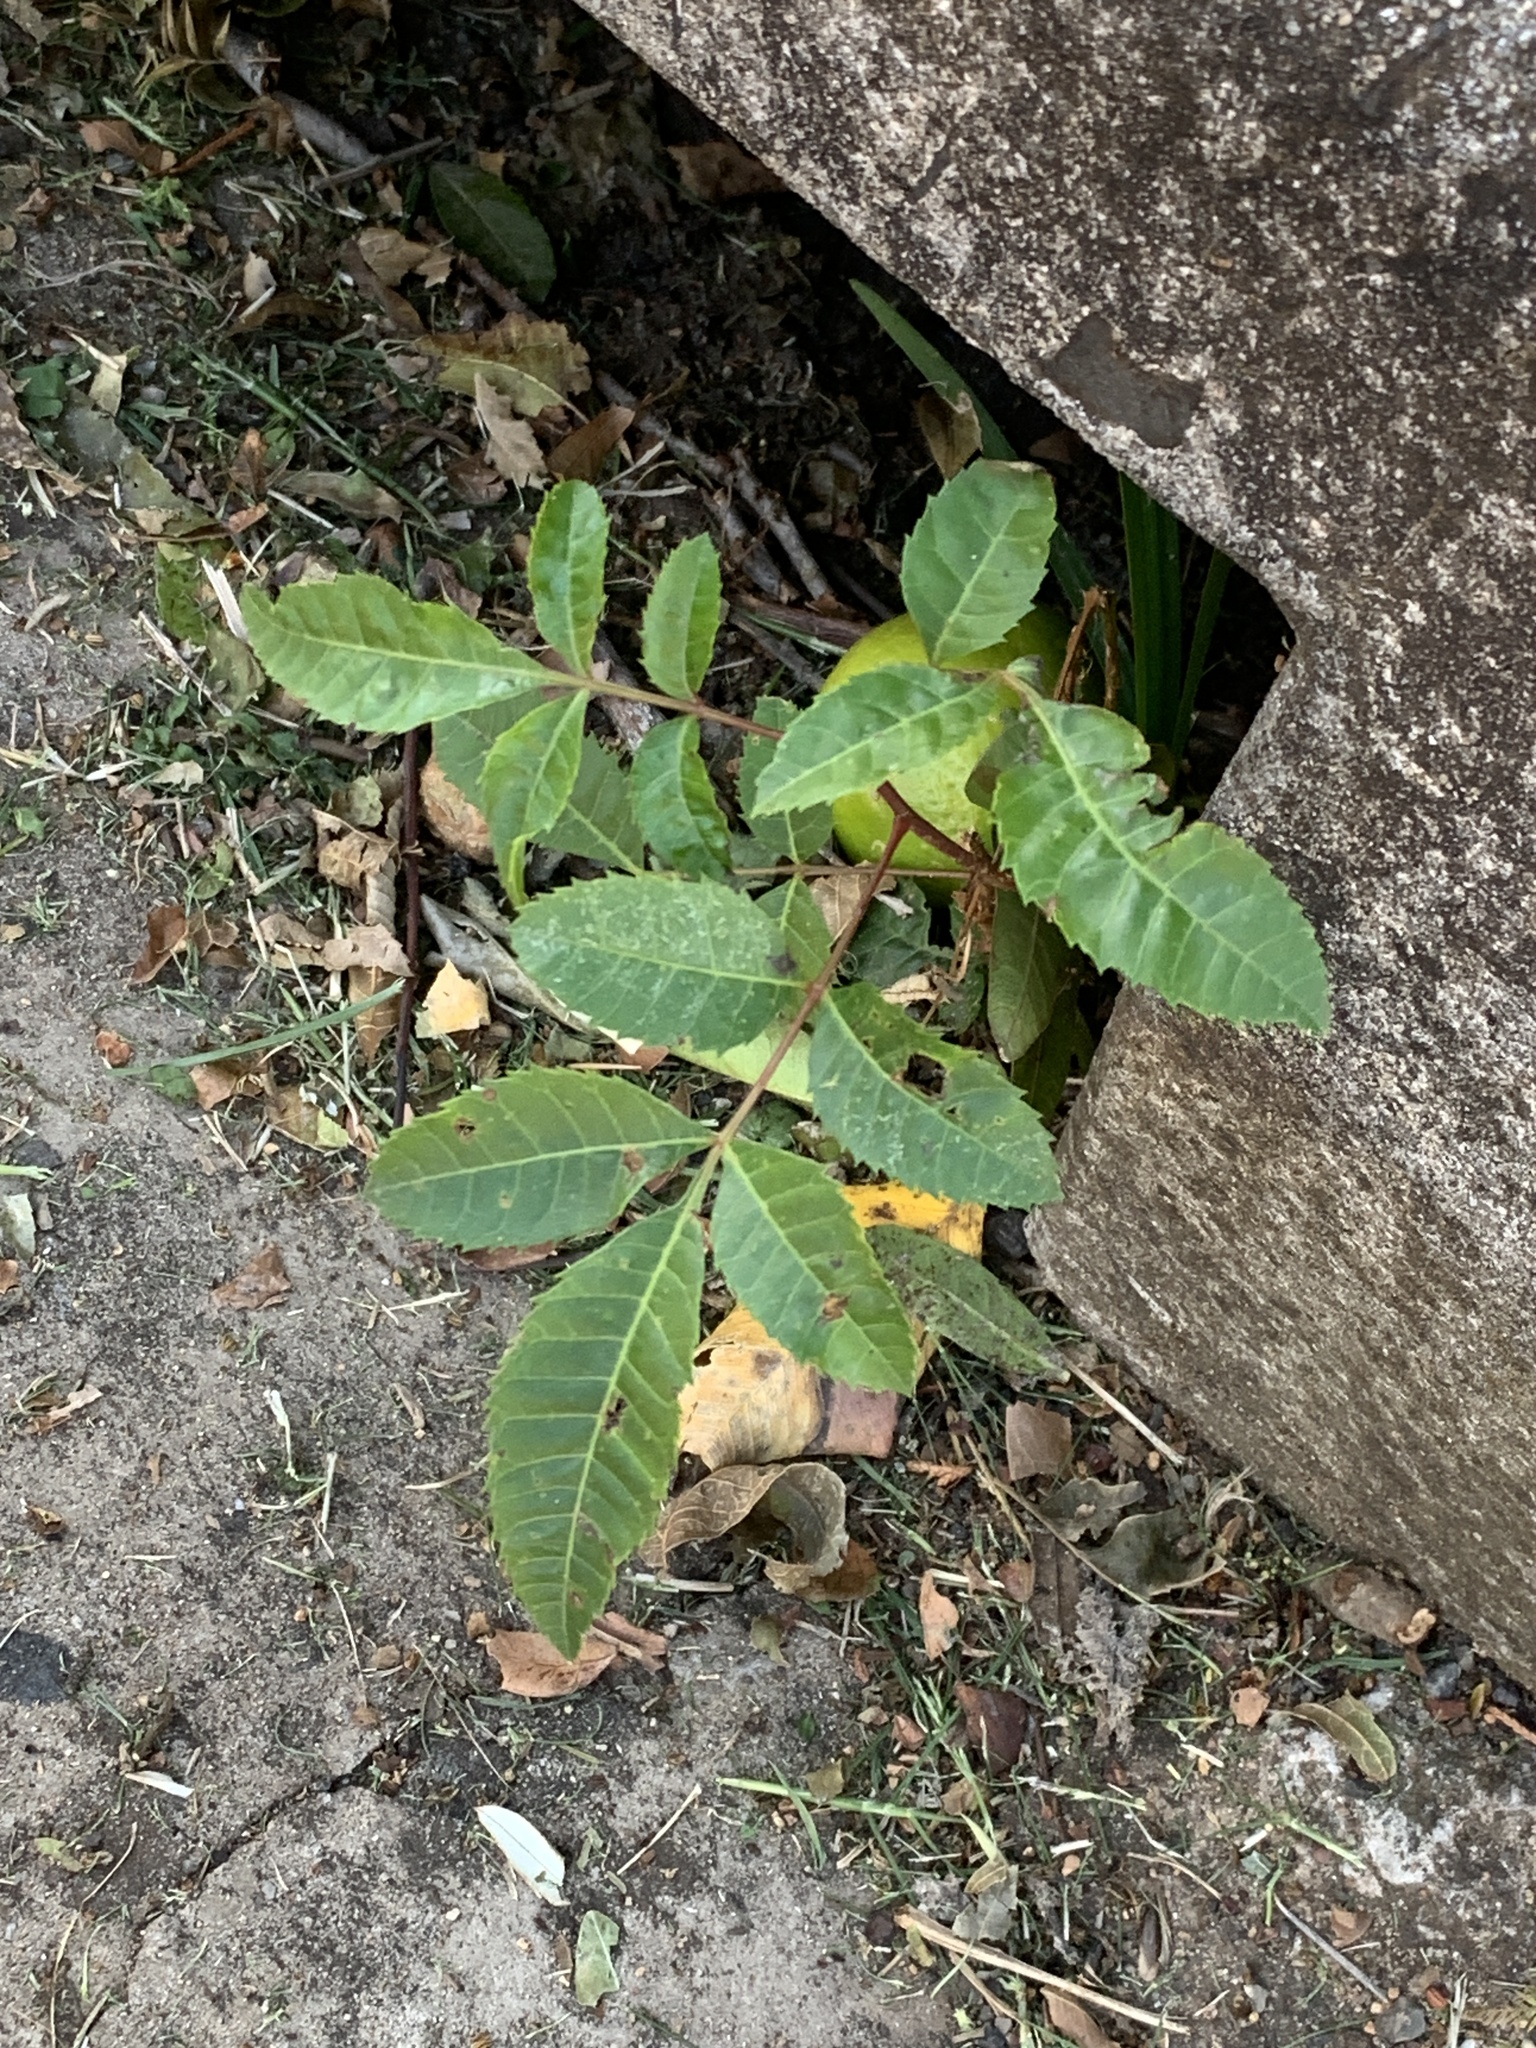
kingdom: Plantae
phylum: Tracheophyta
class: Magnoliopsida
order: Sapindales
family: Anacardiaceae
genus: Schinus
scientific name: Schinus terebinthifolia
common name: Brazilian peppertree
